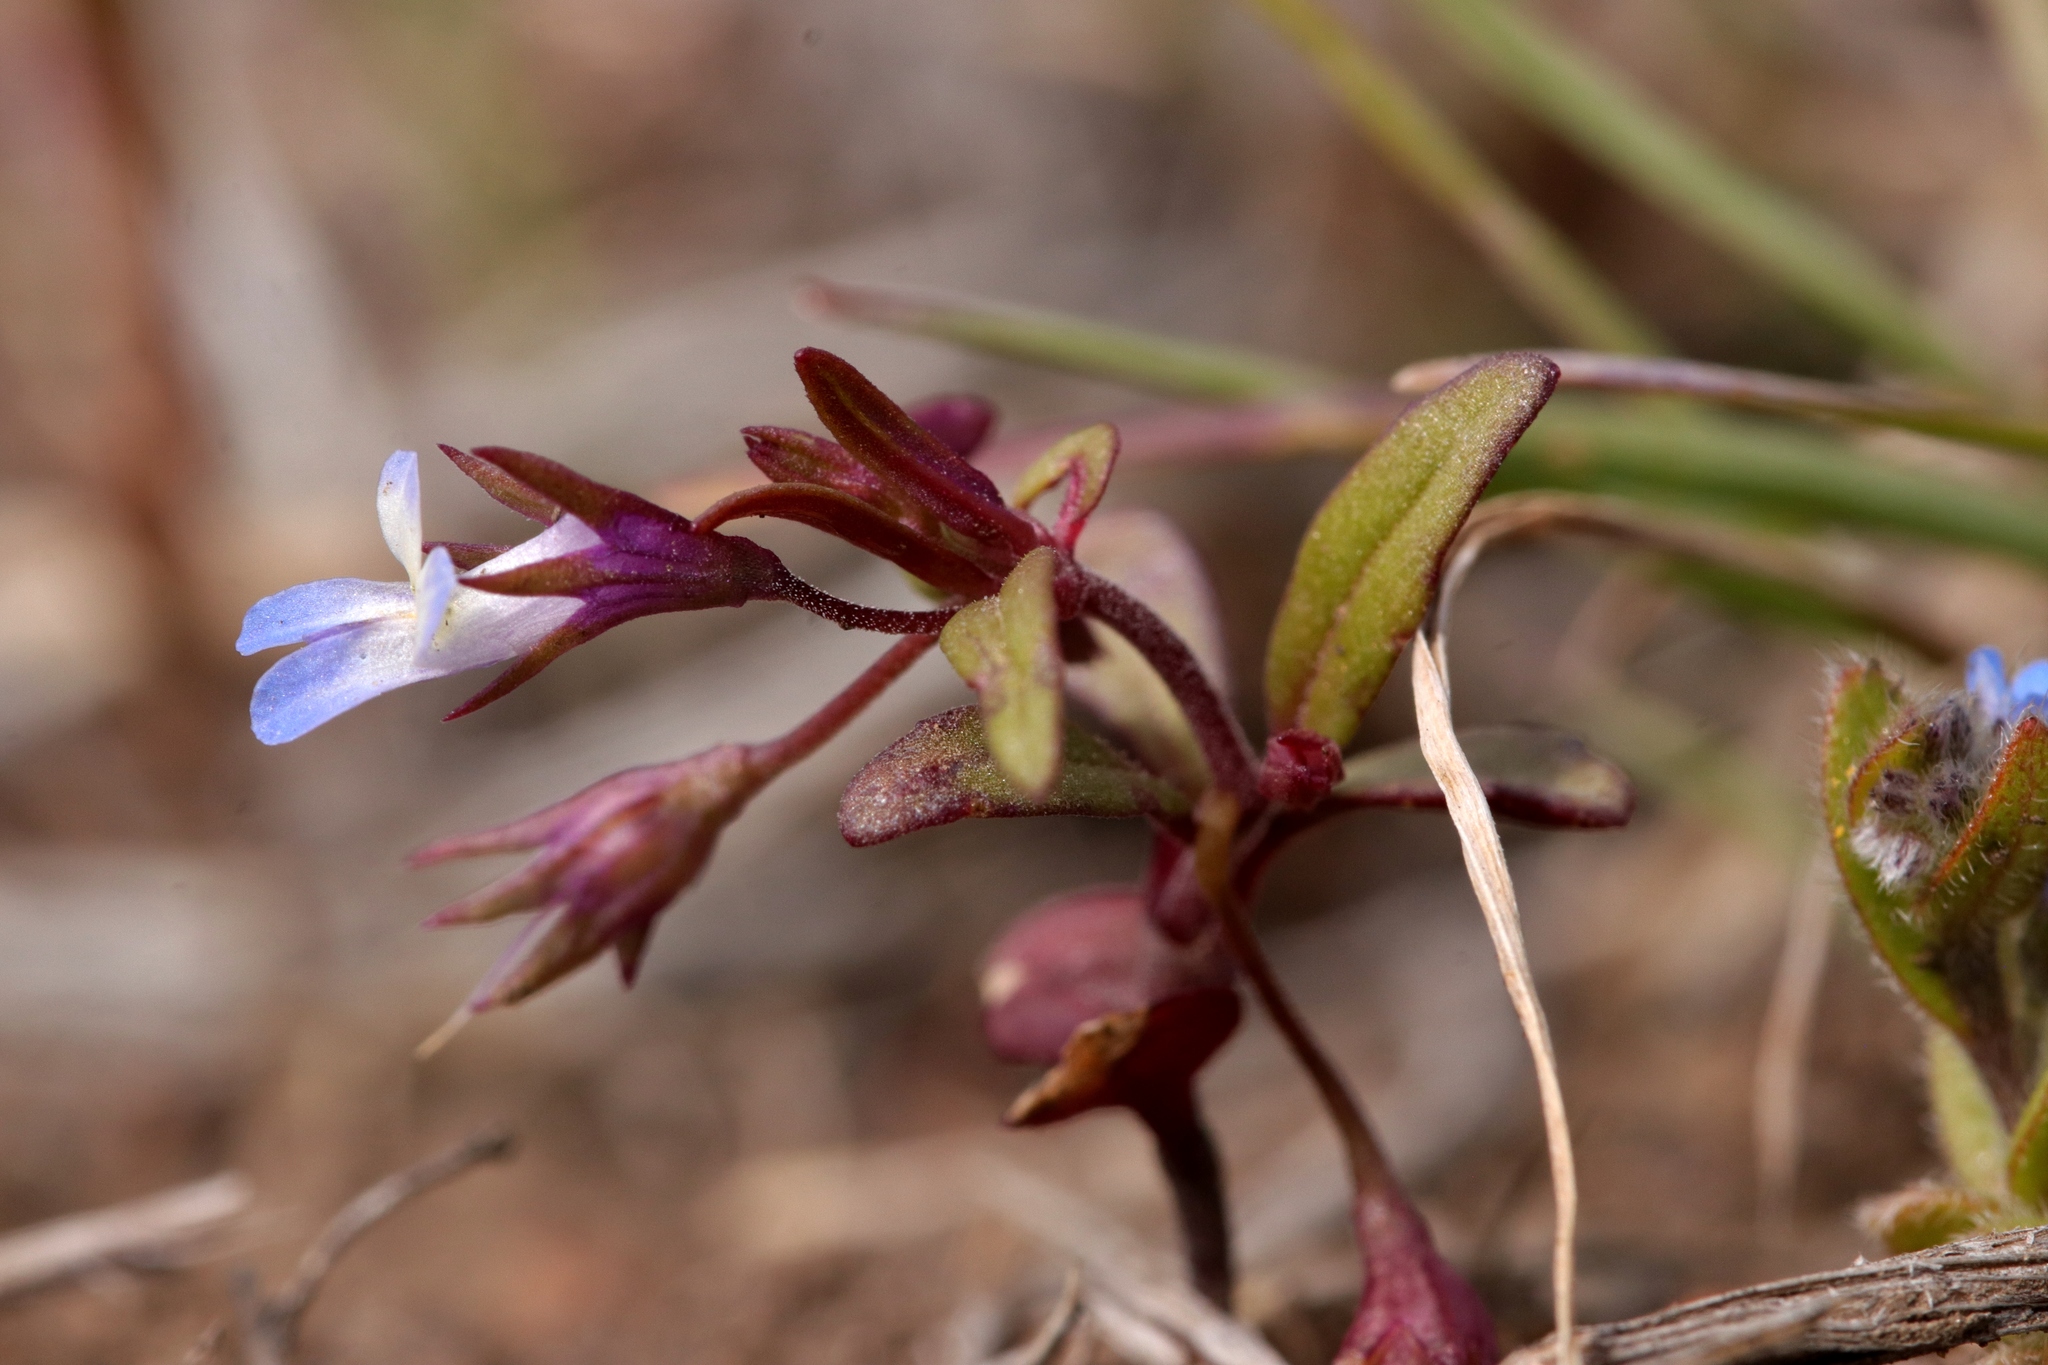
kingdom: Plantae
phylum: Tracheophyta
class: Magnoliopsida
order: Lamiales
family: Plantaginaceae
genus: Collinsia
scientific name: Collinsia parviflora
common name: Blue-lips
